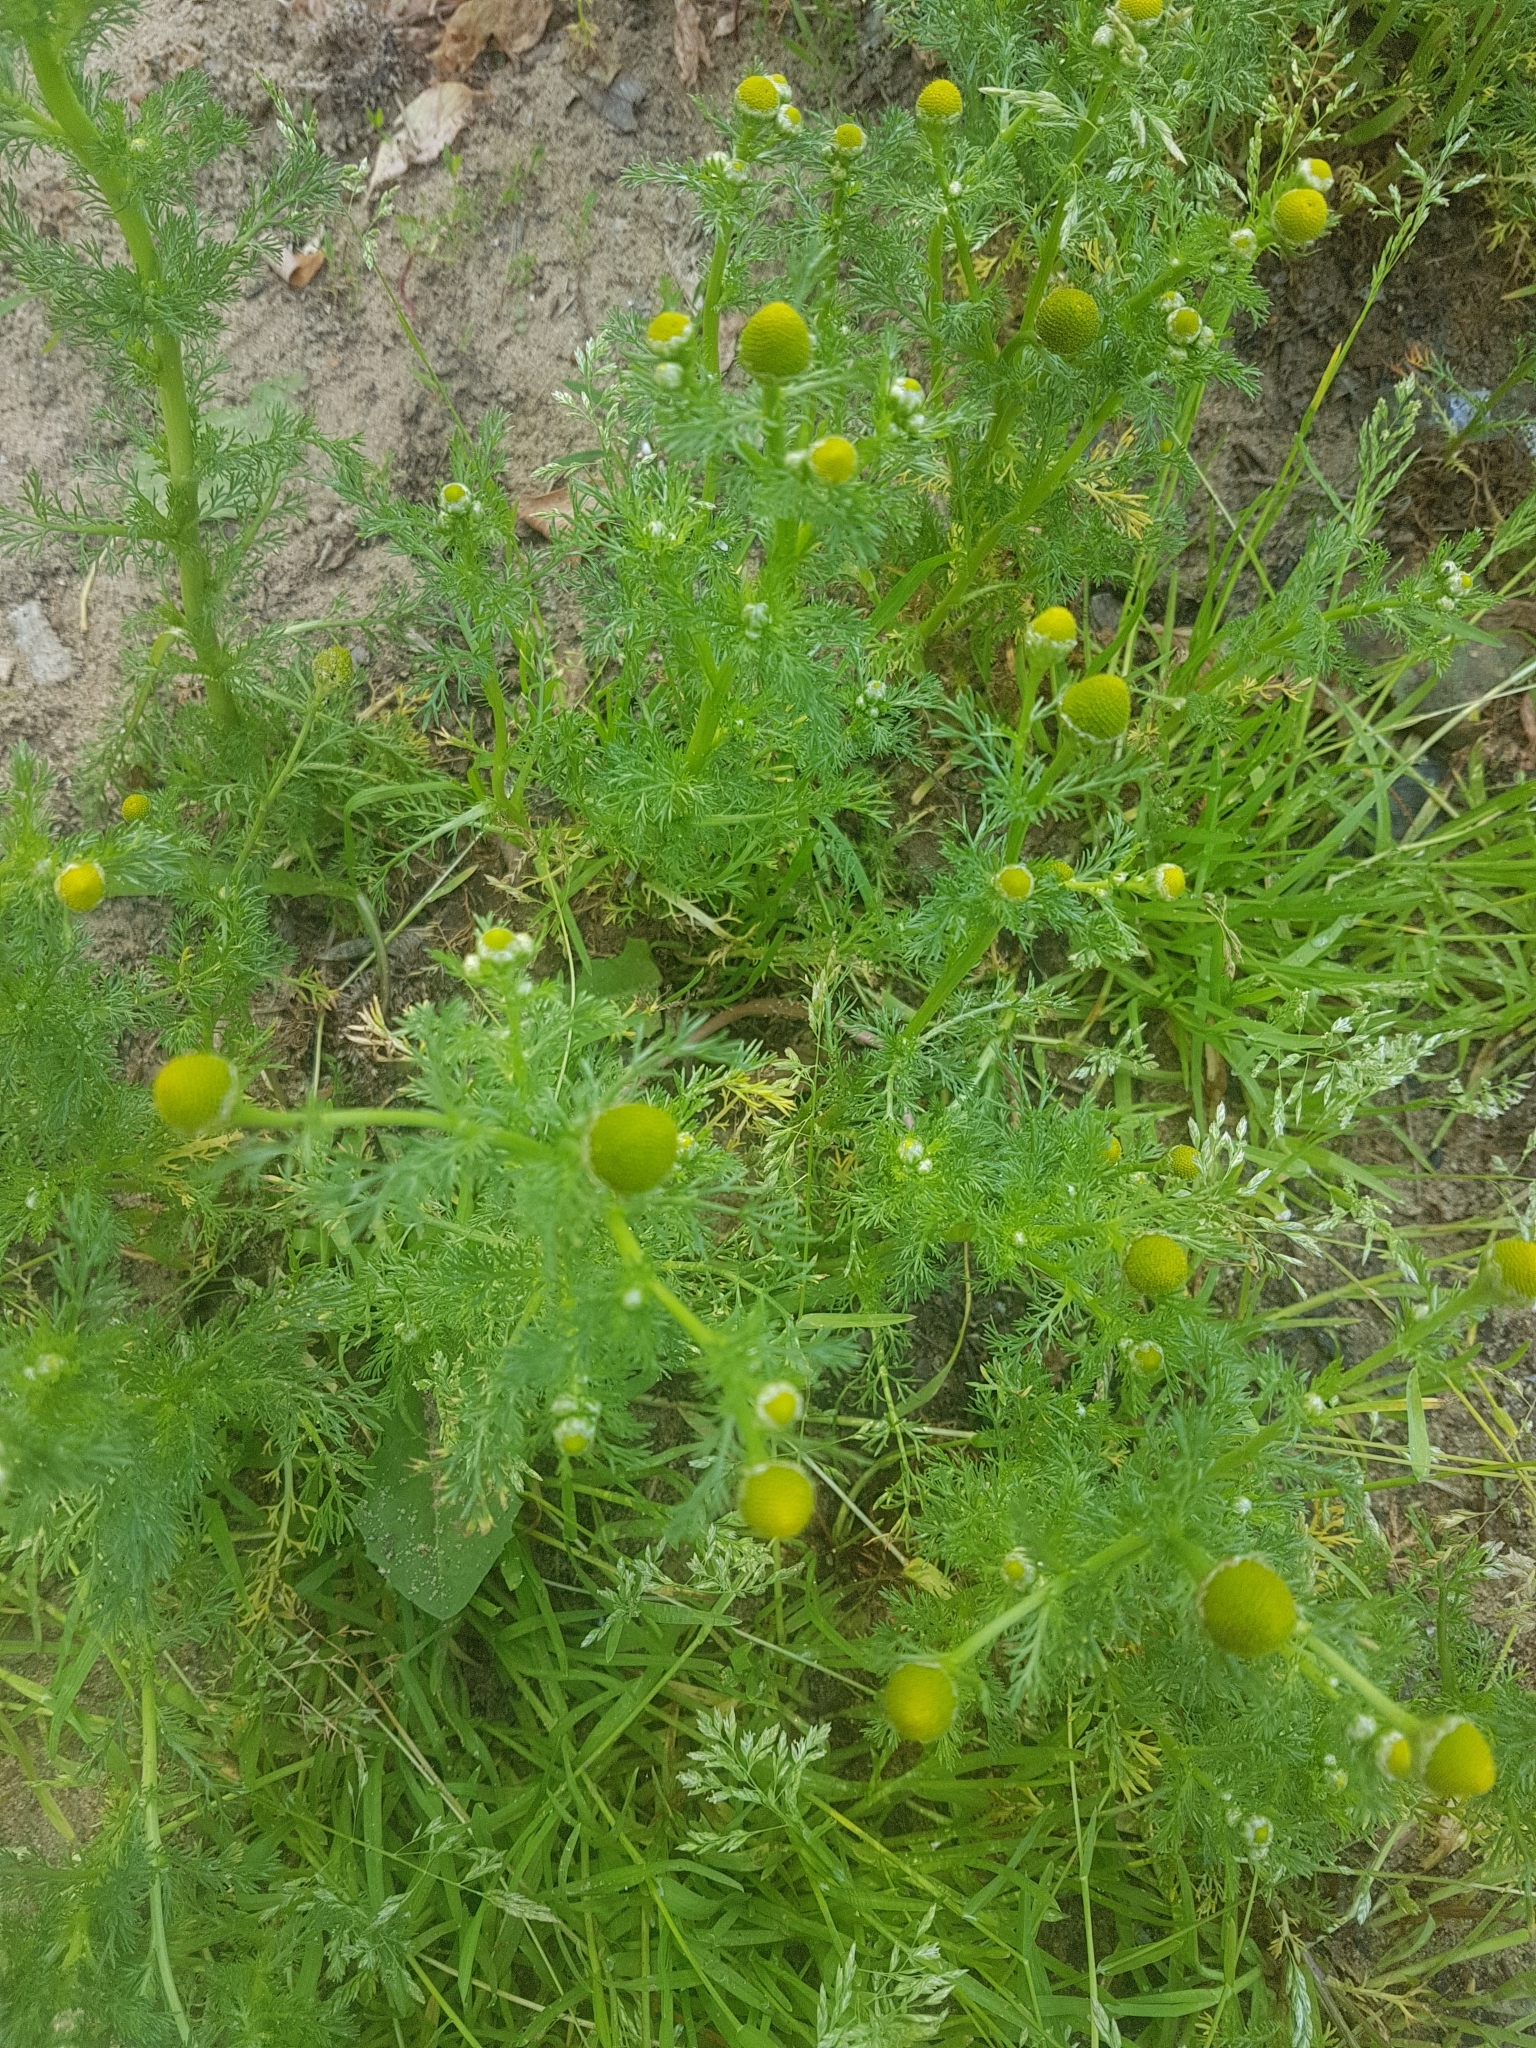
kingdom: Plantae
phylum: Tracheophyta
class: Magnoliopsida
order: Asterales
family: Asteraceae
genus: Matricaria
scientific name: Matricaria discoidea
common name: Disc mayweed
